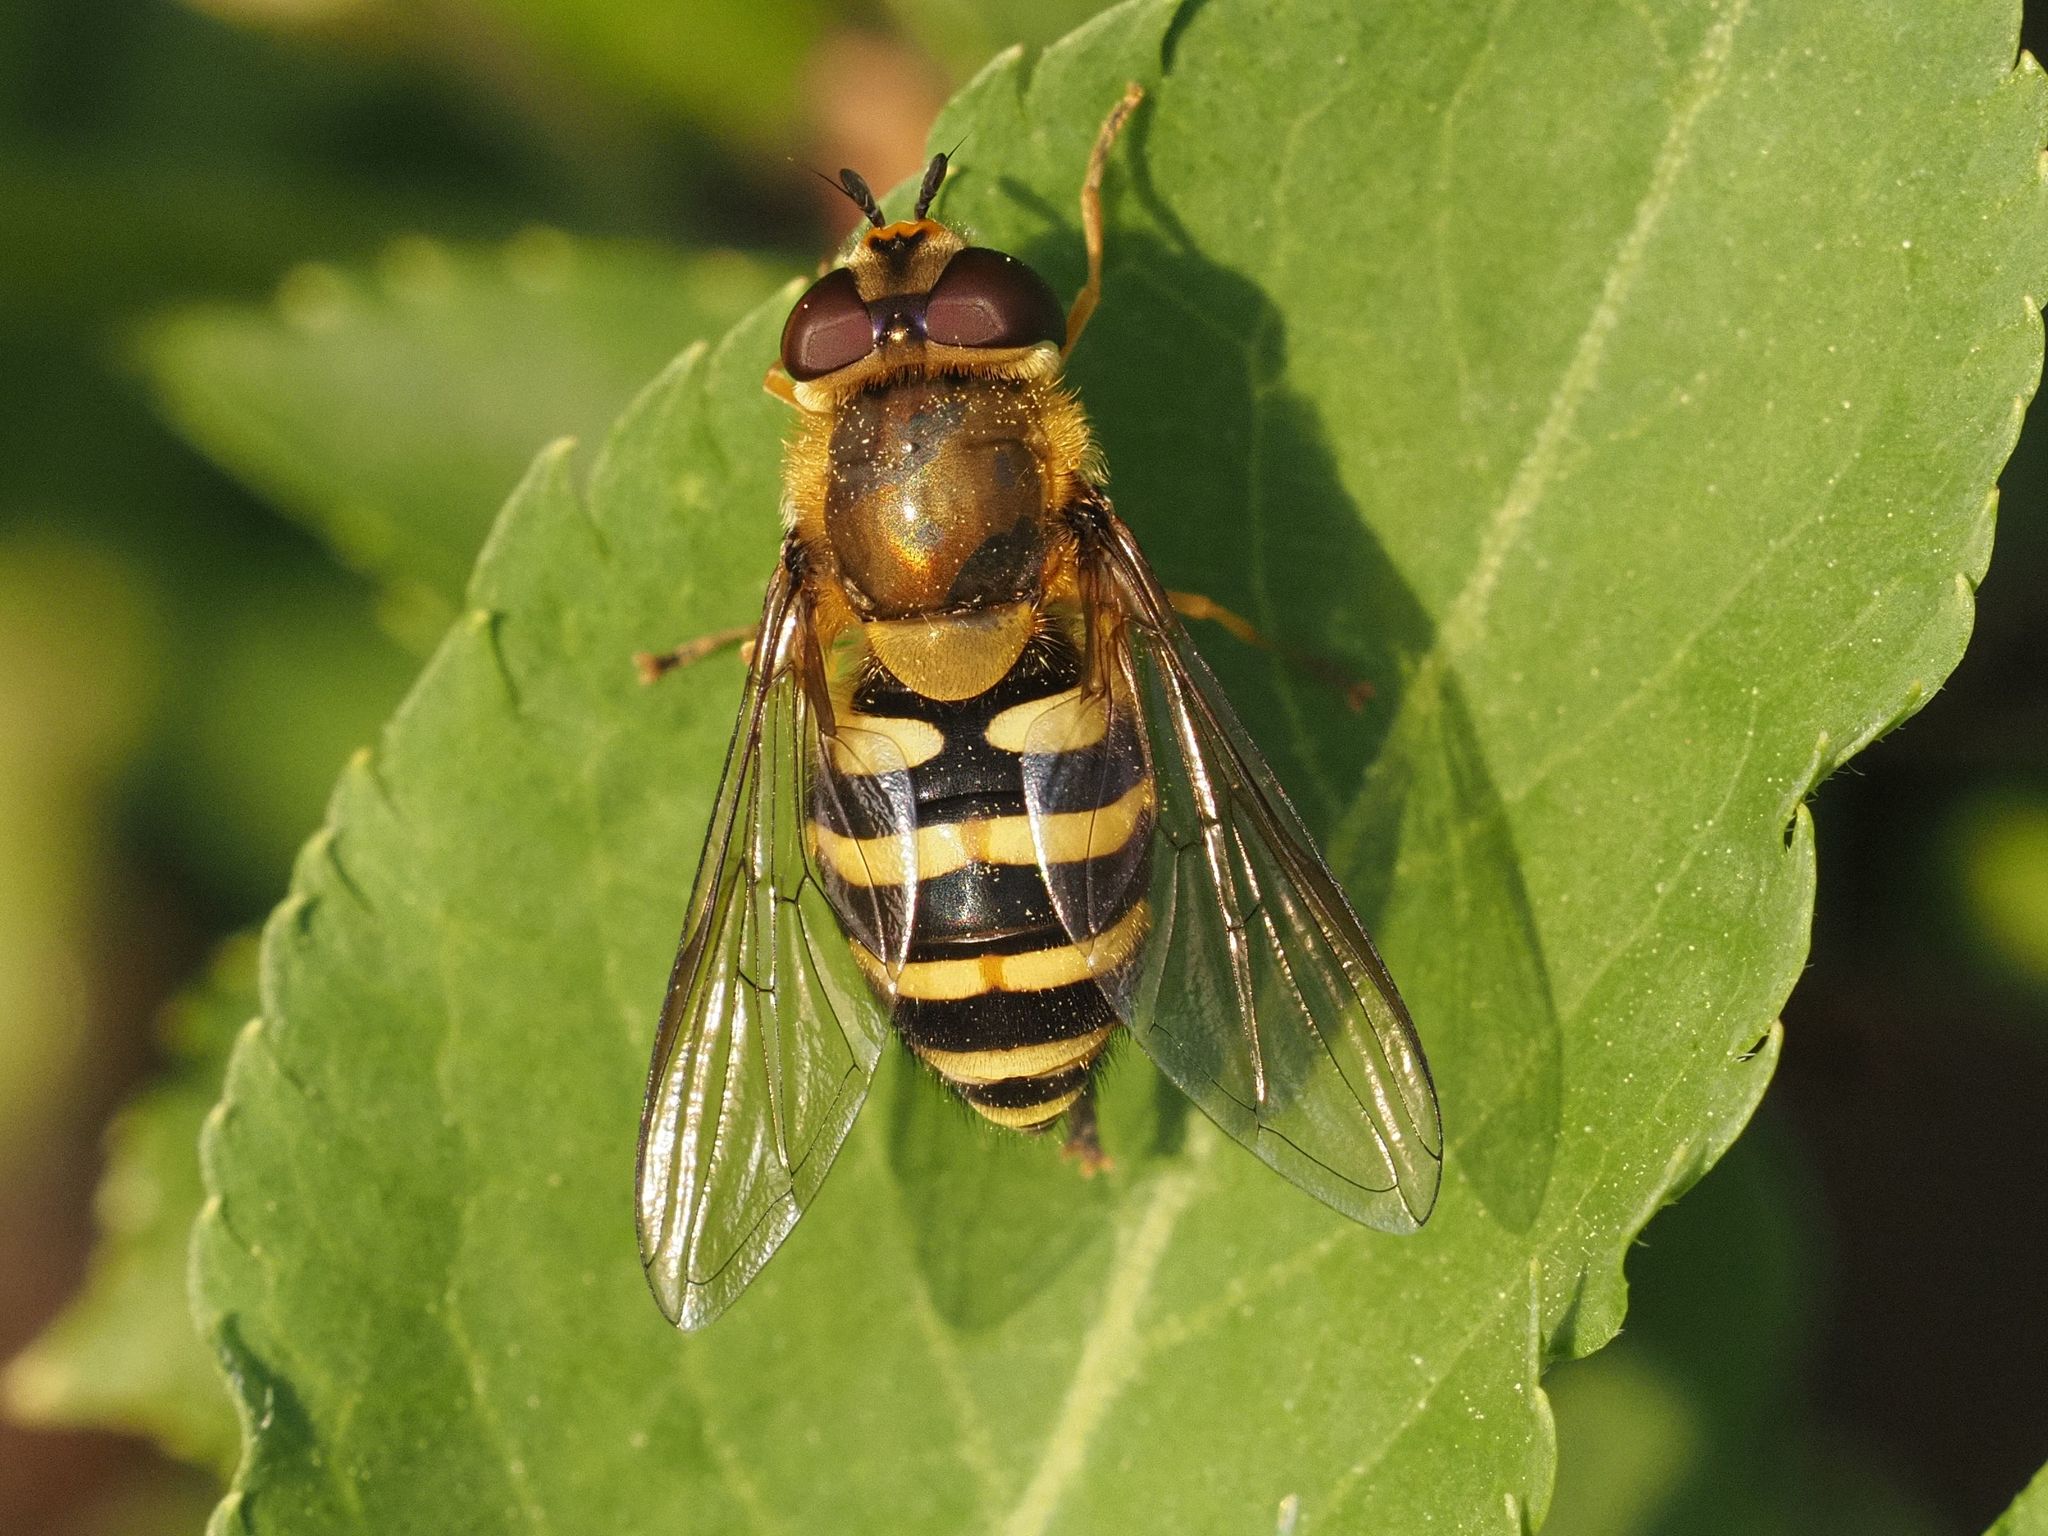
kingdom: Animalia
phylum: Arthropoda
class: Insecta
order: Diptera
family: Syrphidae
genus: Syrphus
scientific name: Syrphus ribesii
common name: Common flower fly
